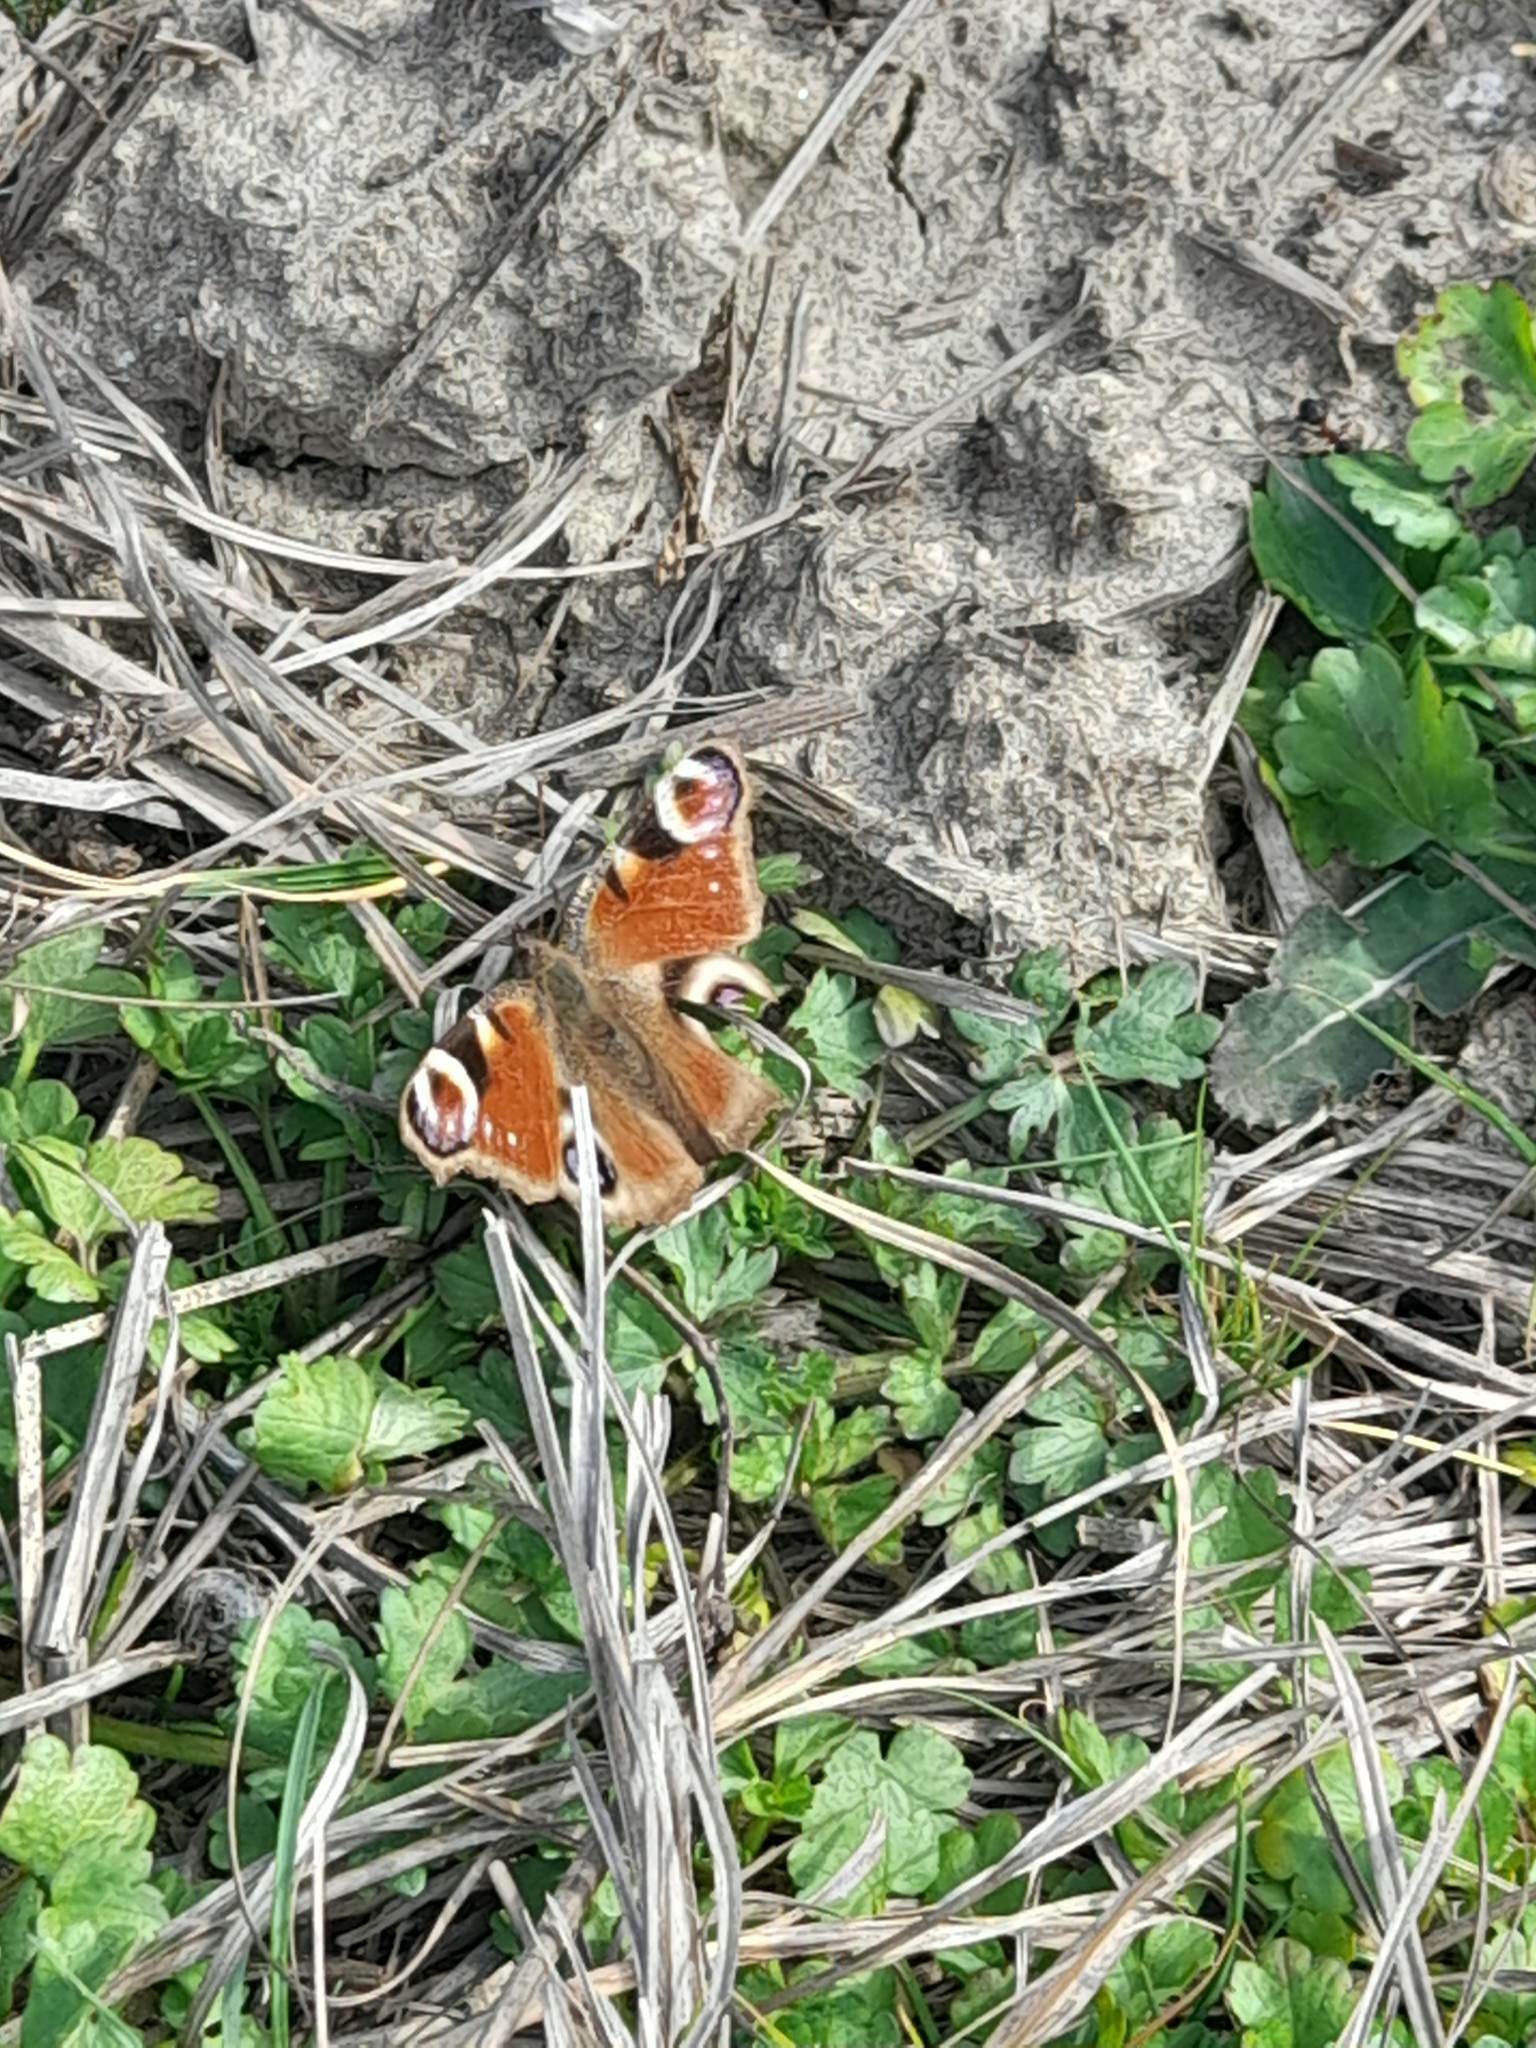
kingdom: Animalia
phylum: Arthropoda
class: Insecta
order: Lepidoptera
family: Nymphalidae
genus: Aglais
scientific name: Aglais io
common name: Peacock
